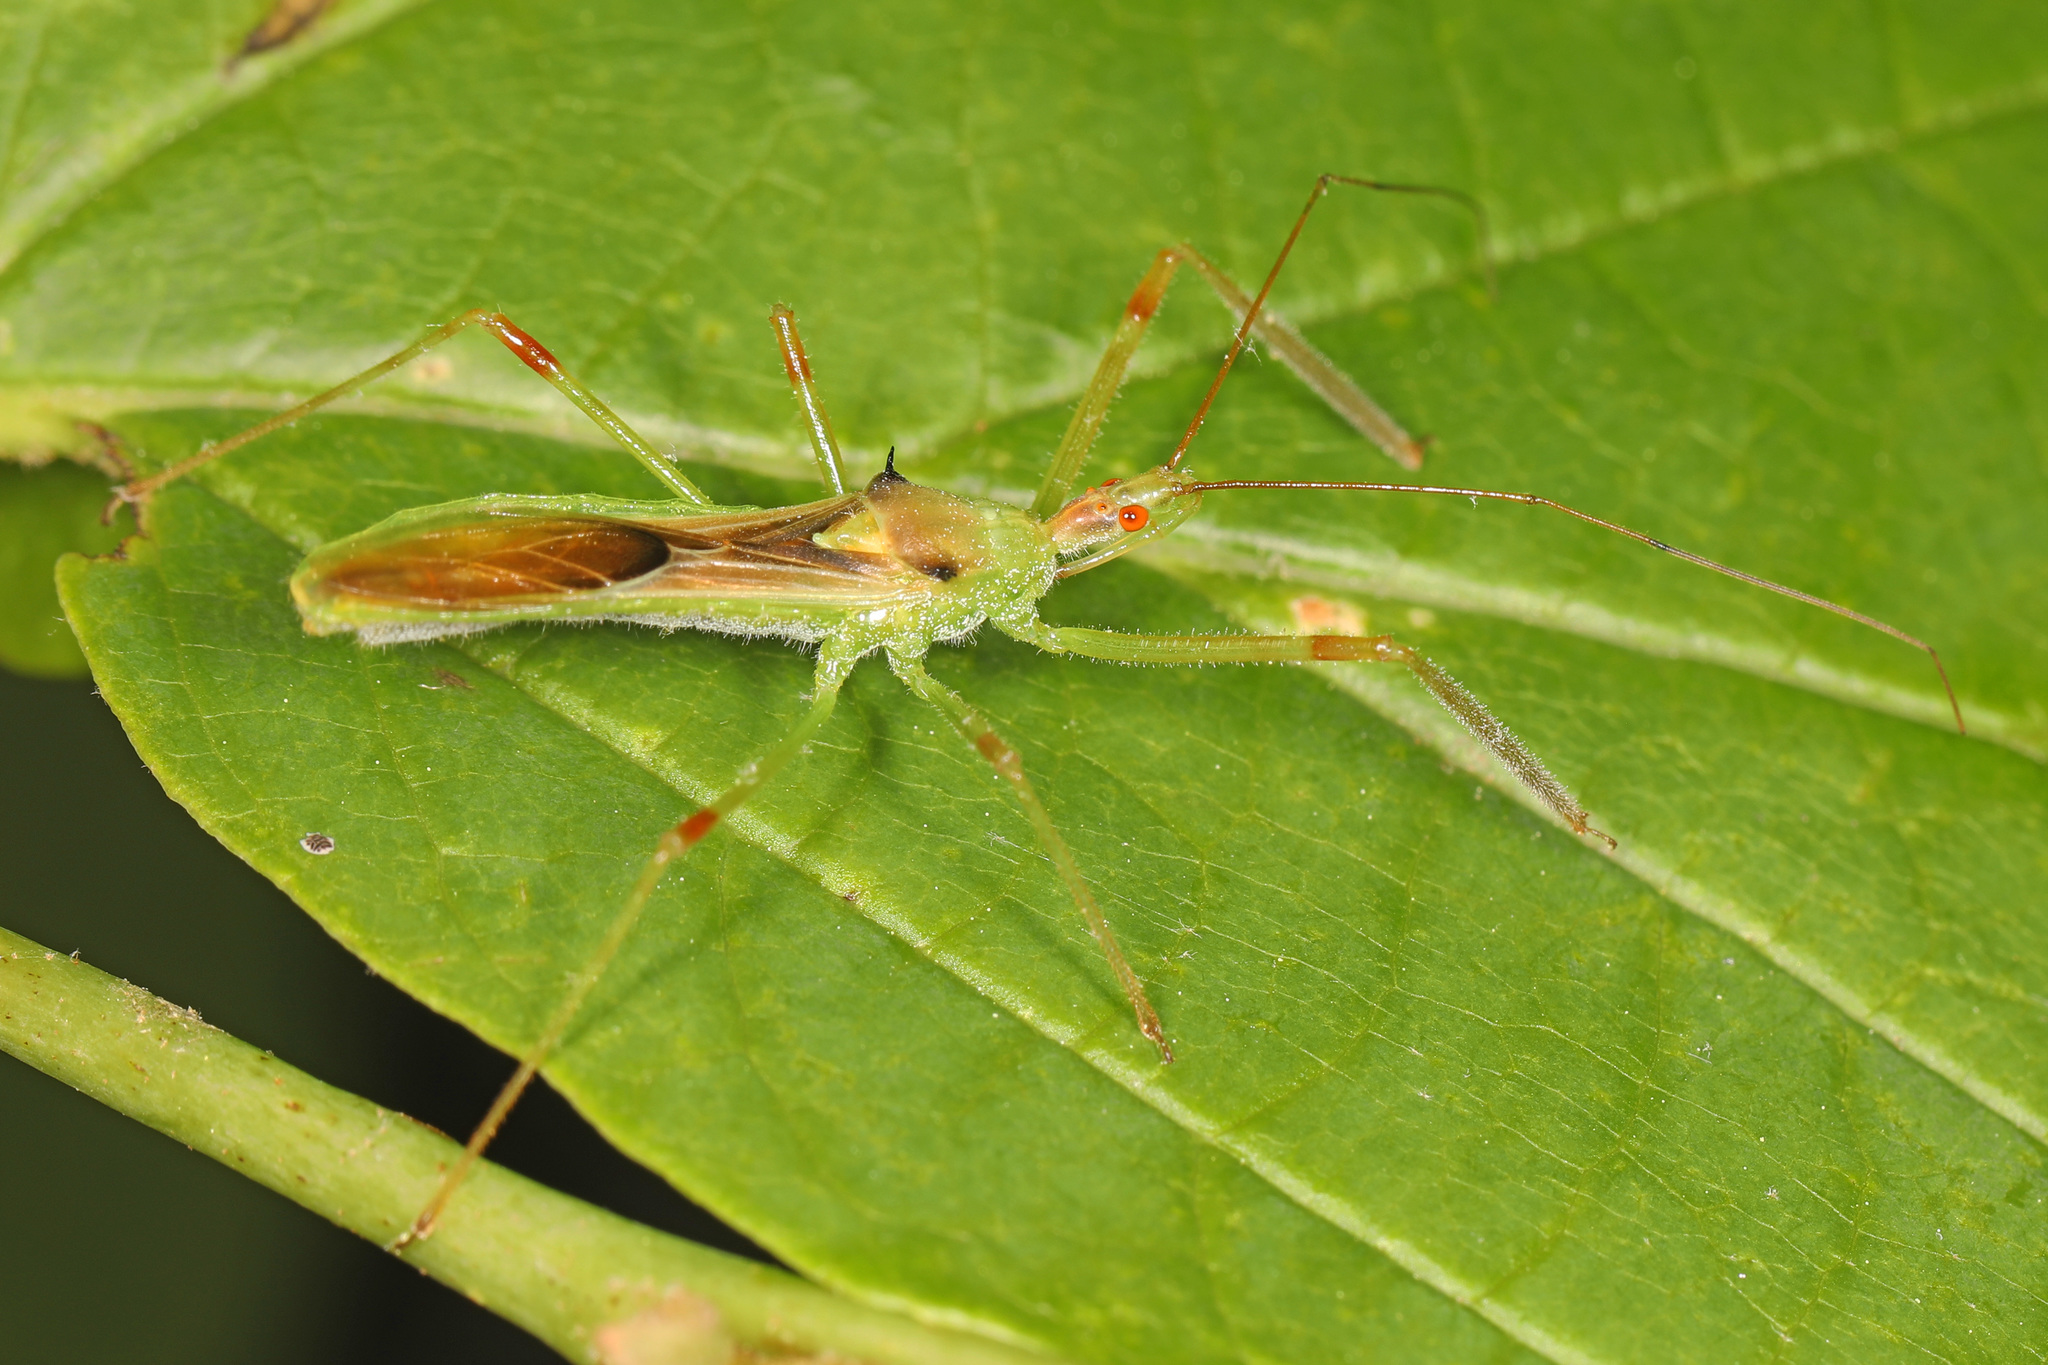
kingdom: Animalia
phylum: Arthropoda
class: Insecta
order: Hemiptera
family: Reduviidae
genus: Zelus
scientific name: Zelus luridus
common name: Pale green assassin bug
